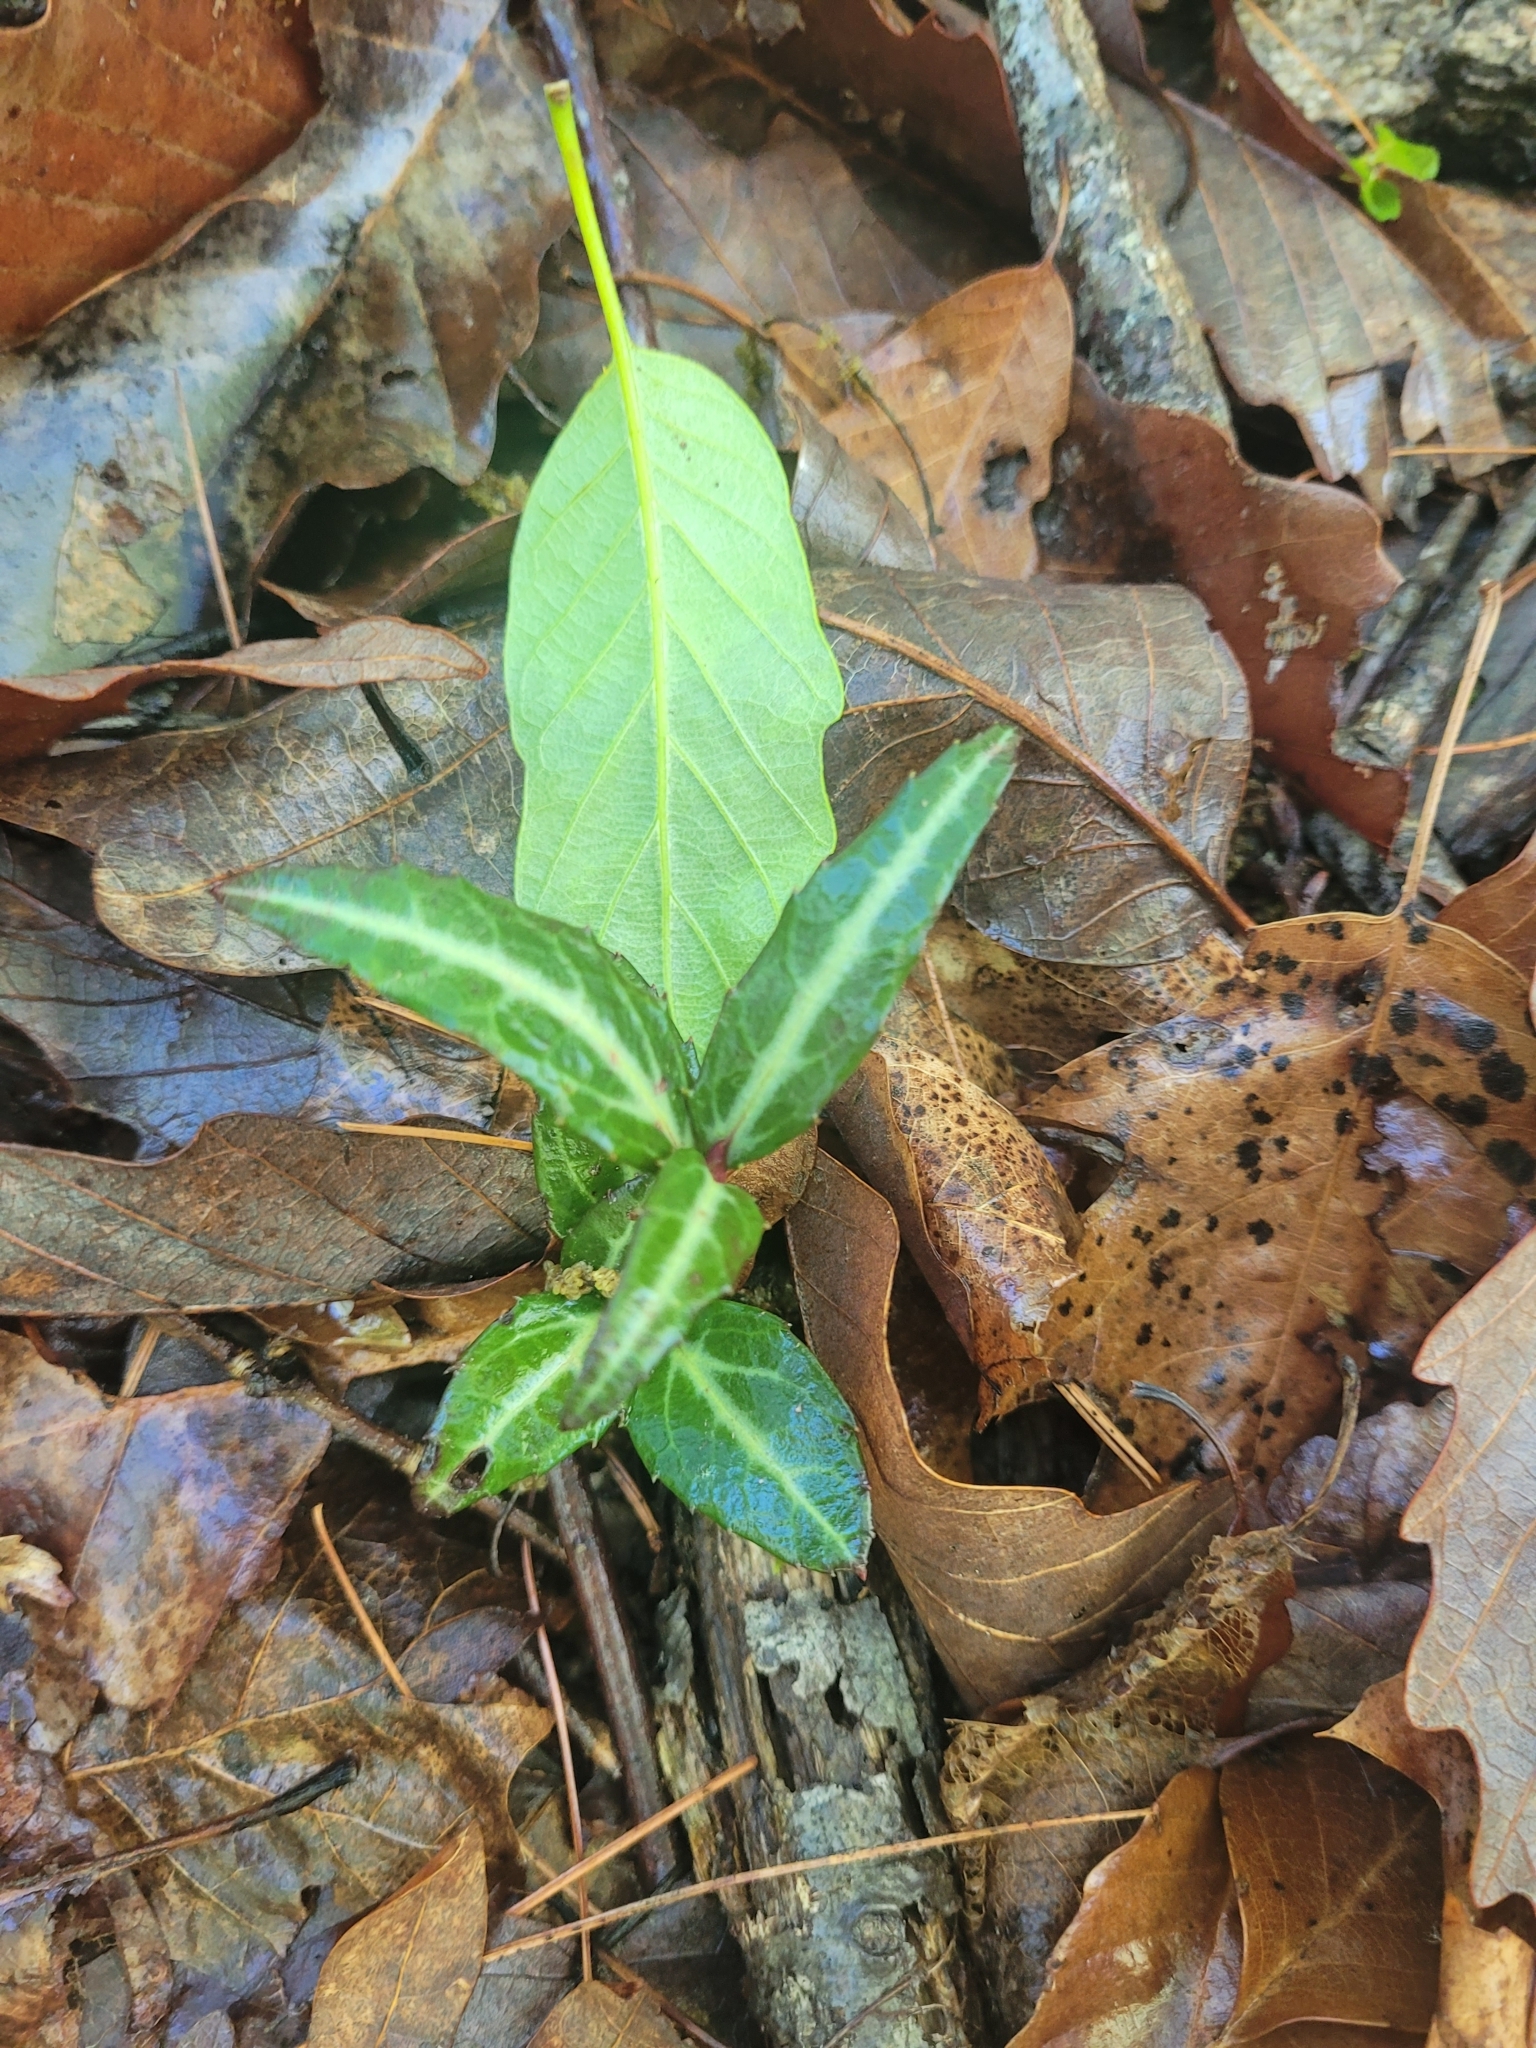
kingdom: Plantae
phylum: Tracheophyta
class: Magnoliopsida
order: Ericales
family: Ericaceae
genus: Chimaphila
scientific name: Chimaphila maculata
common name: Spotted pipsissewa
